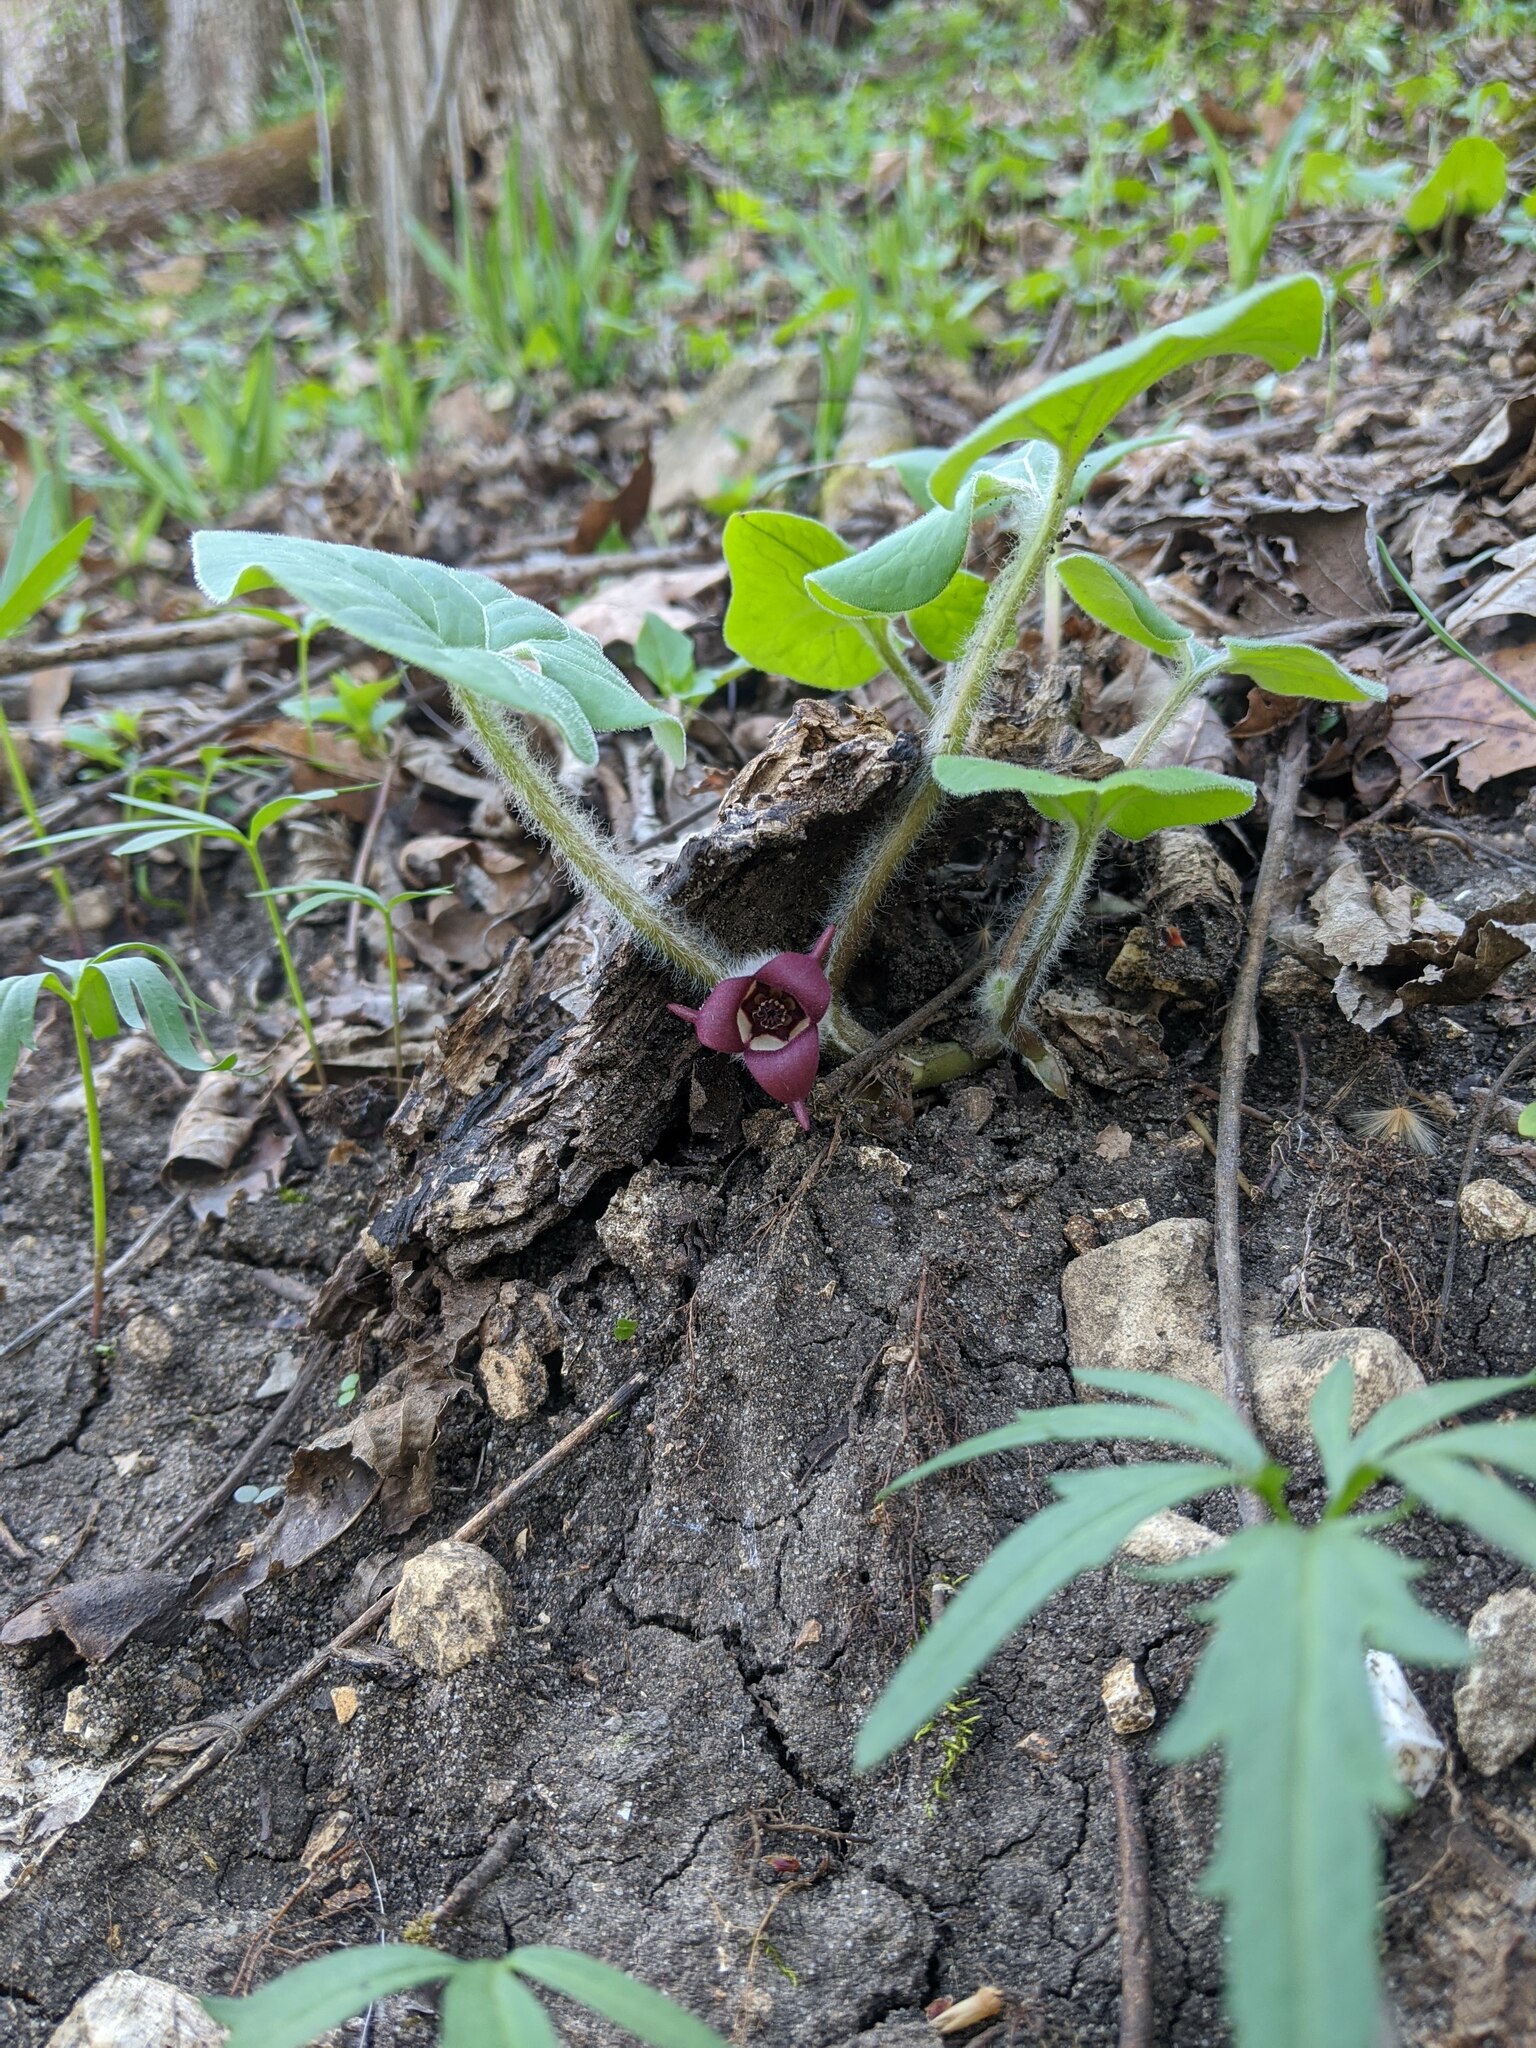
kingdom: Plantae
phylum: Tracheophyta
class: Magnoliopsida
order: Piperales
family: Aristolochiaceae
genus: Asarum
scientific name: Asarum canadense
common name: Wild ginger
